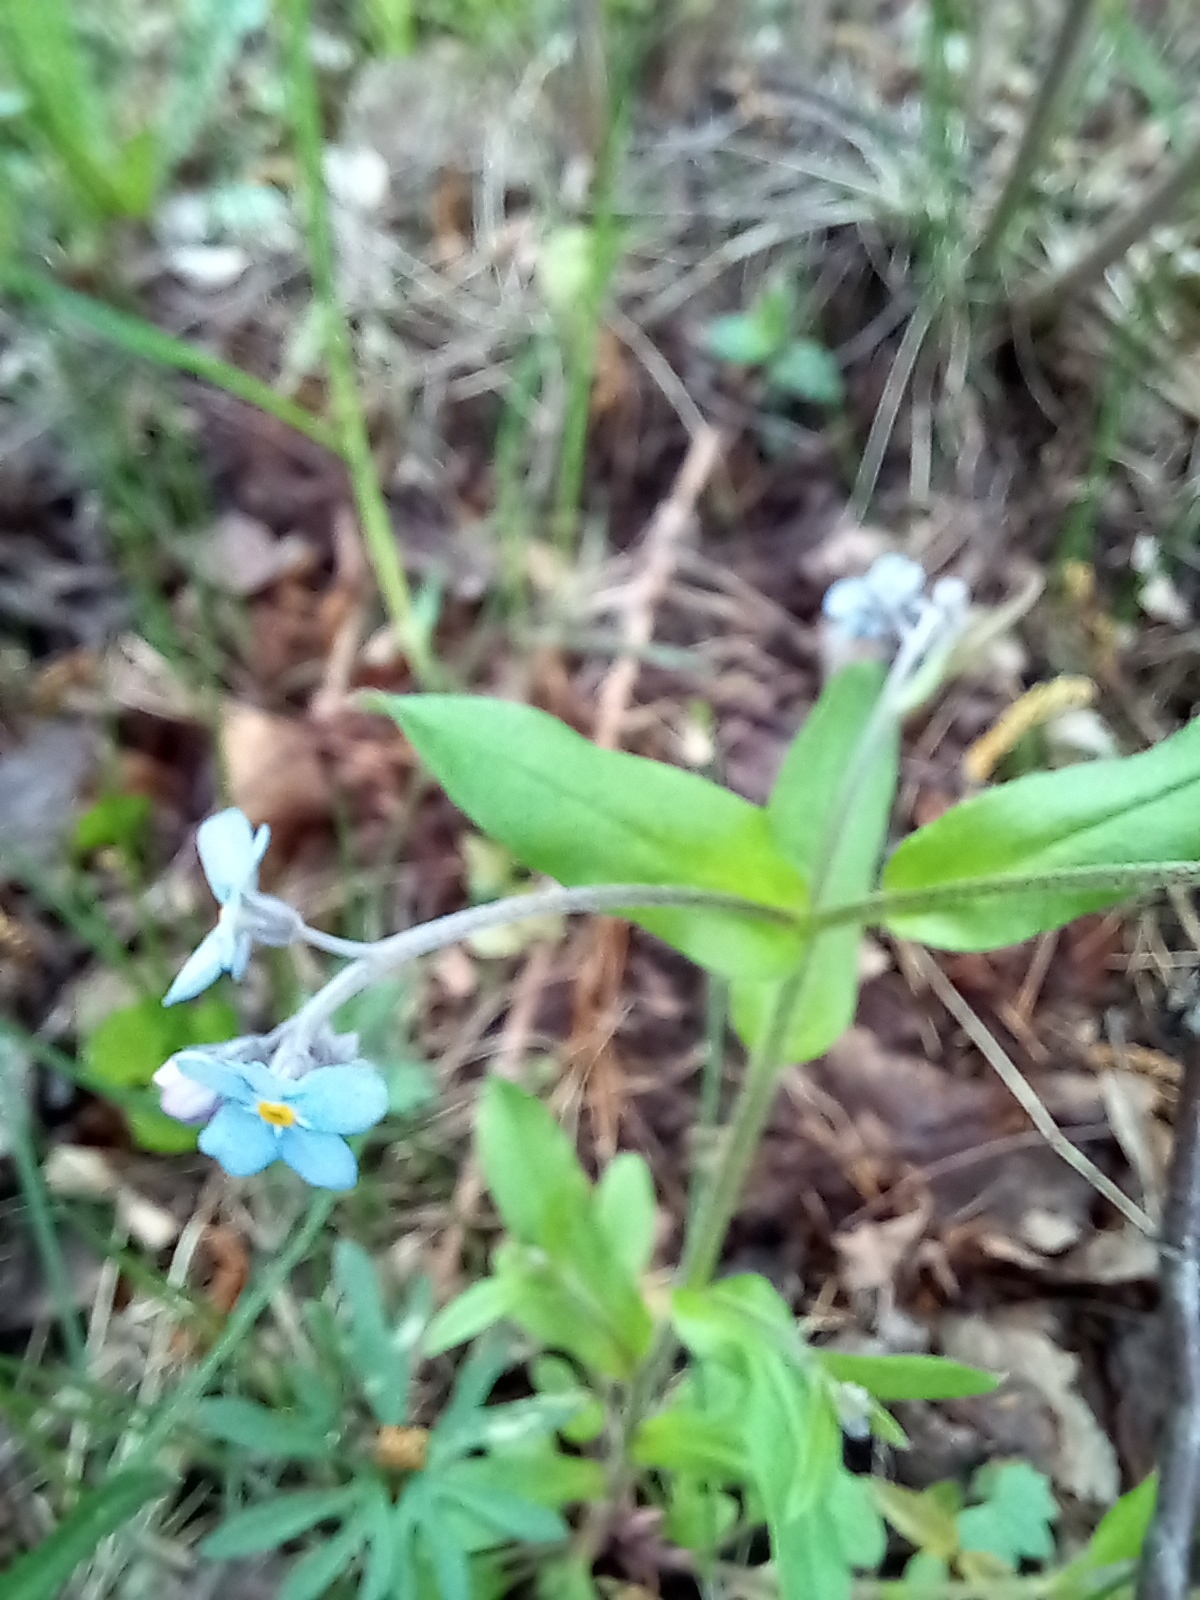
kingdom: Plantae
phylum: Tracheophyta
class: Magnoliopsida
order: Boraginales
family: Boraginaceae
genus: Myosotis
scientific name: Myosotis sylvatica
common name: Wood forget-me-not
